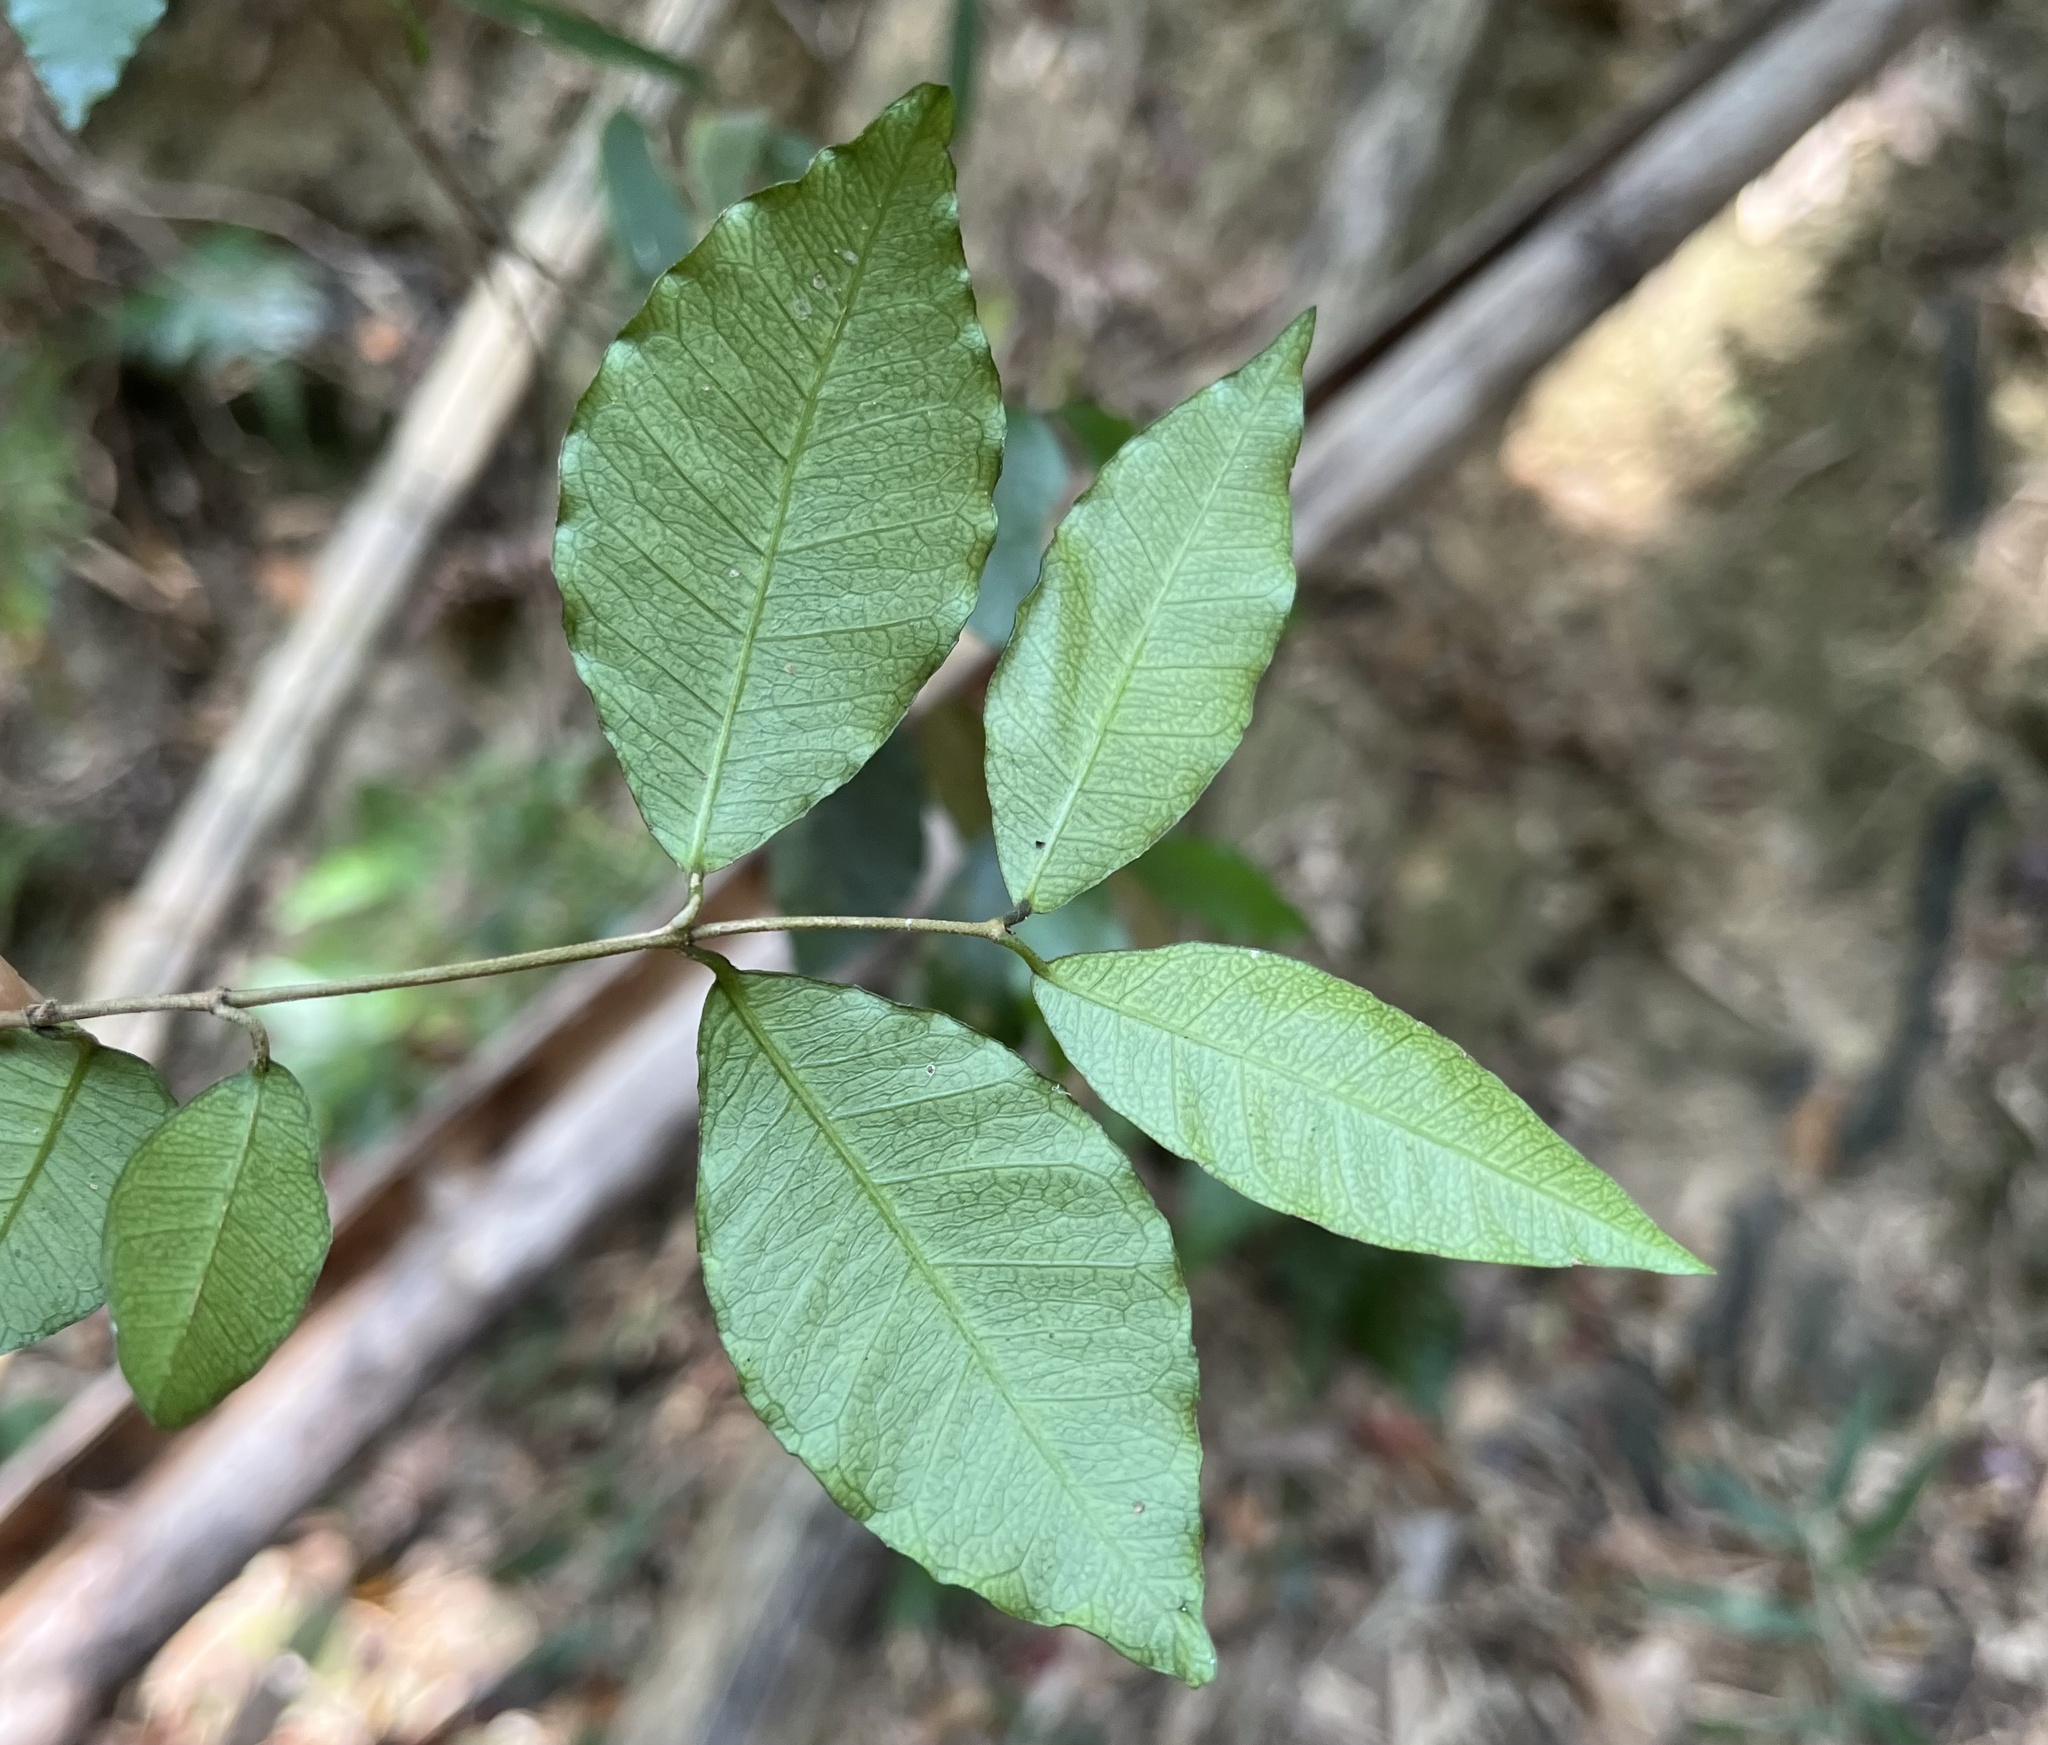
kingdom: Plantae
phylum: Tracheophyta
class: Magnoliopsida
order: Gentianales
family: Apocynaceae
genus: Trachelospermum
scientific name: Trachelospermum asiaticum
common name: Asiatic jasmine
